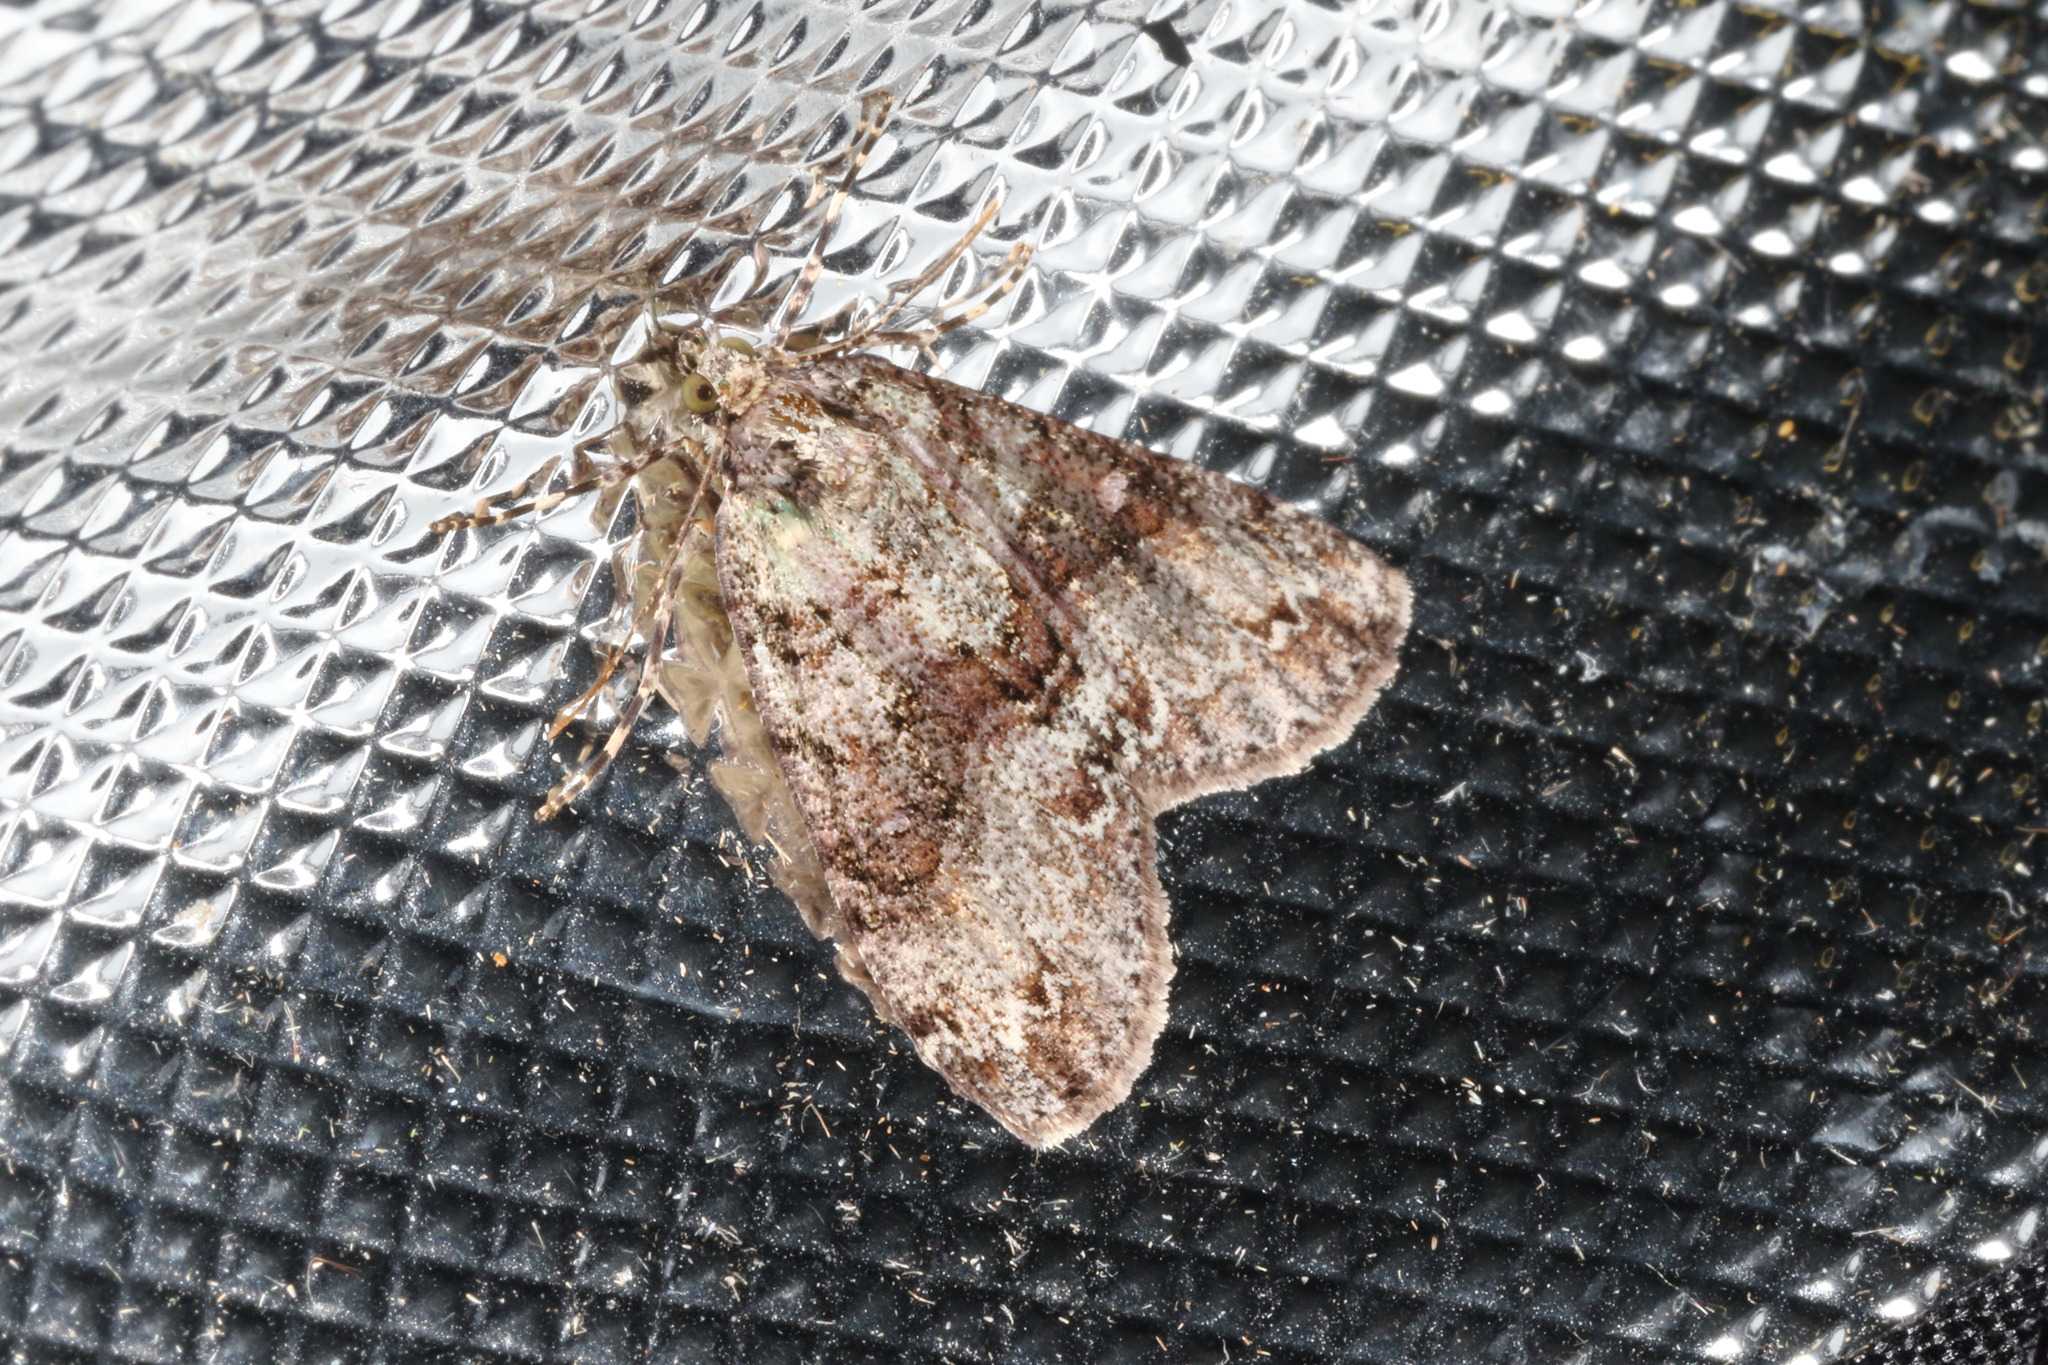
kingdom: Animalia
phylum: Arthropoda
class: Insecta
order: Lepidoptera
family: Geometridae
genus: Pseudocoremia
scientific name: Pseudocoremia suavis
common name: Common forest looper
